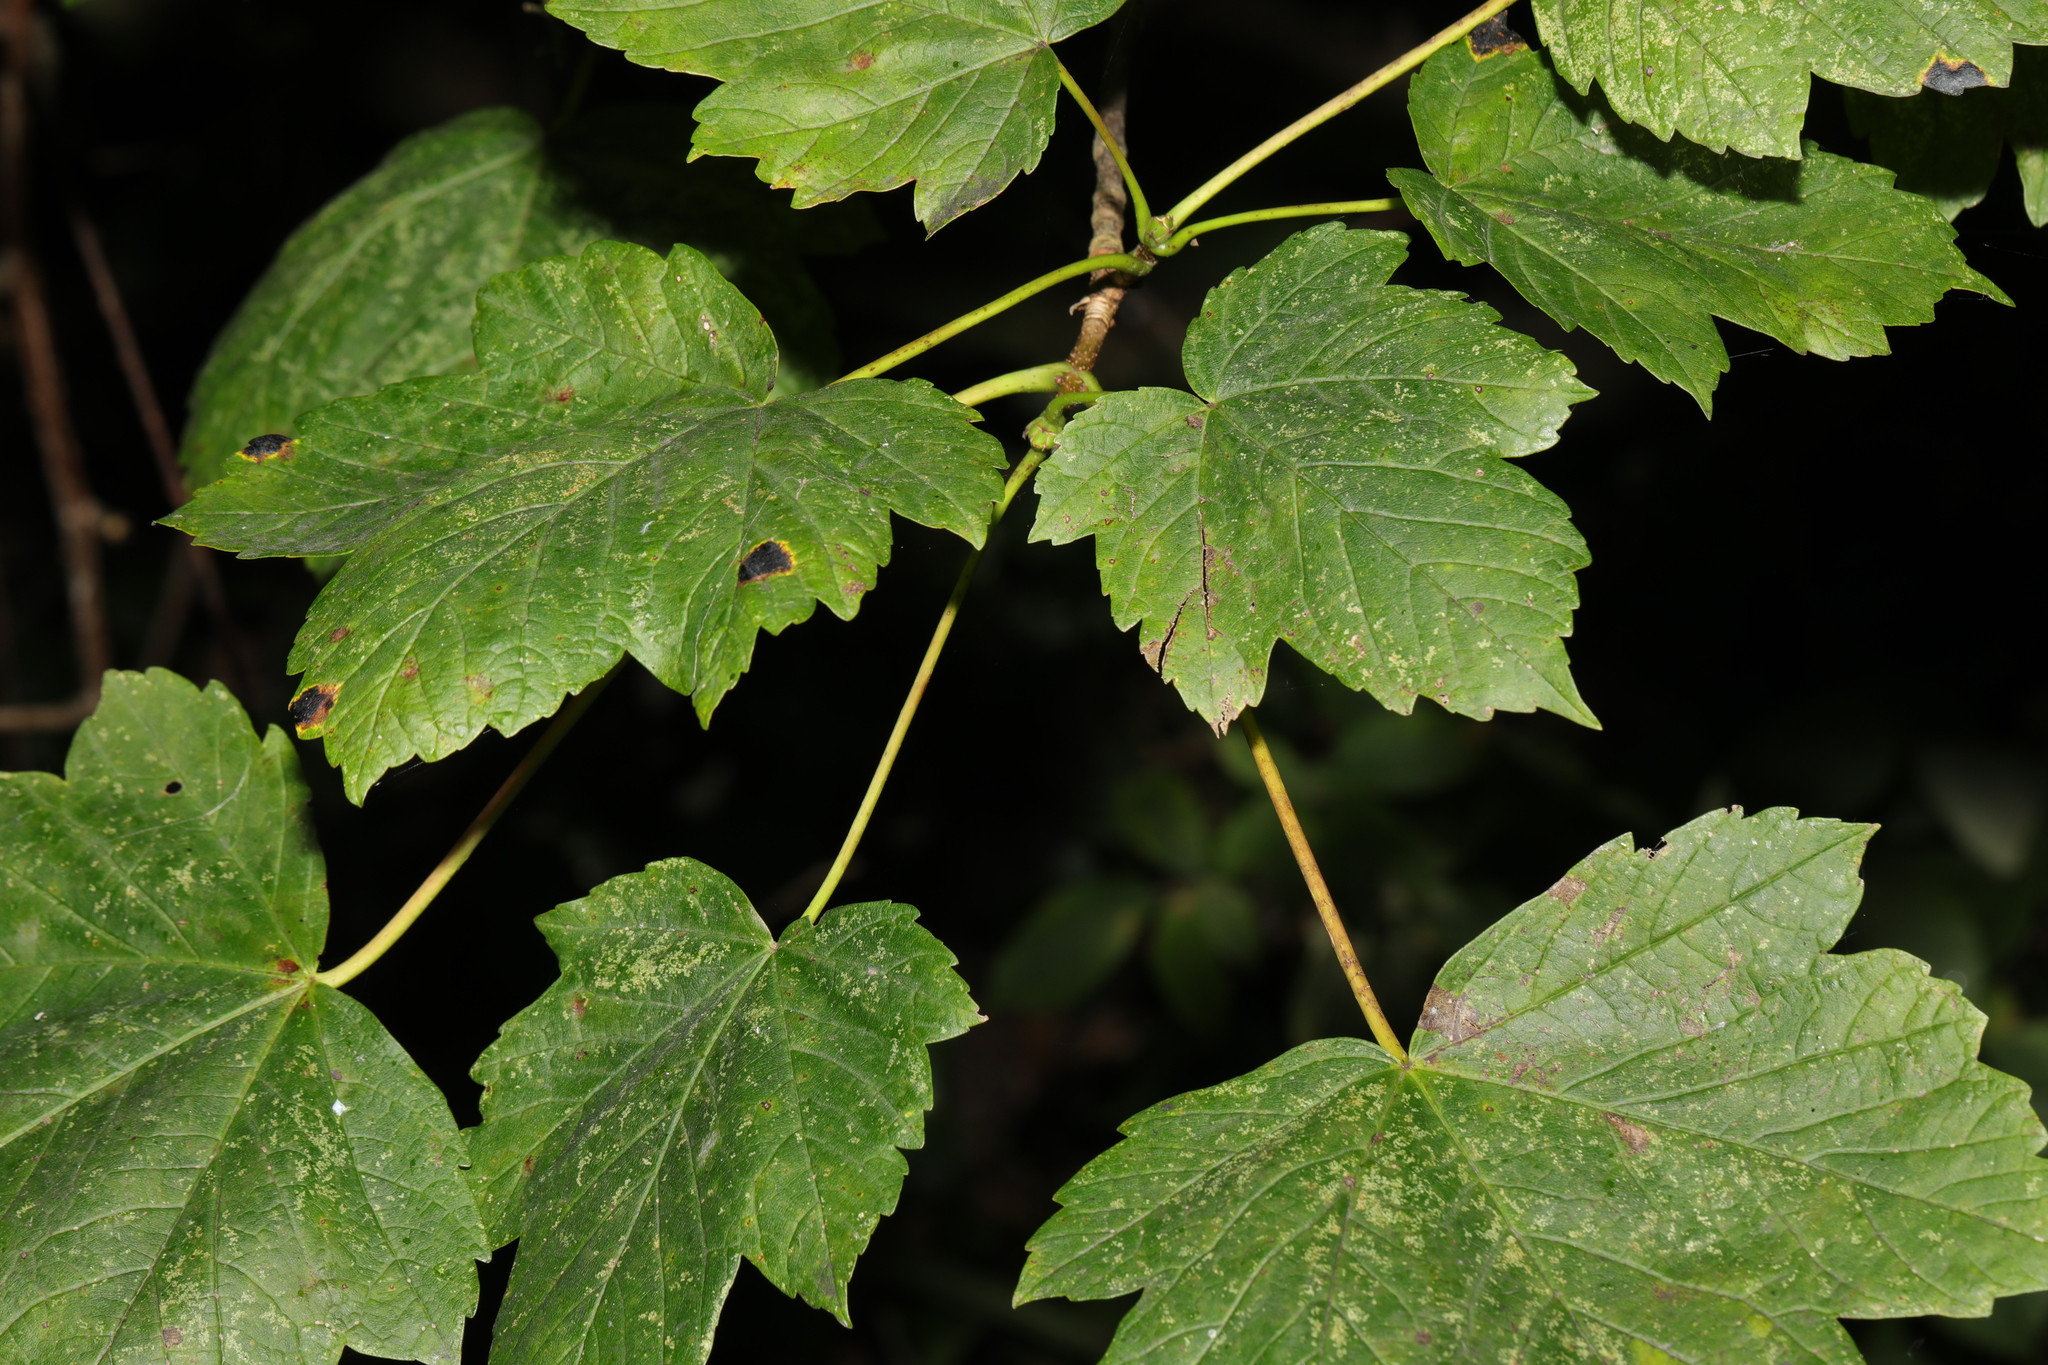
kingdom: Plantae
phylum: Tracheophyta
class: Magnoliopsida
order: Sapindales
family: Sapindaceae
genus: Acer
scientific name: Acer pseudoplatanus
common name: Sycamore
